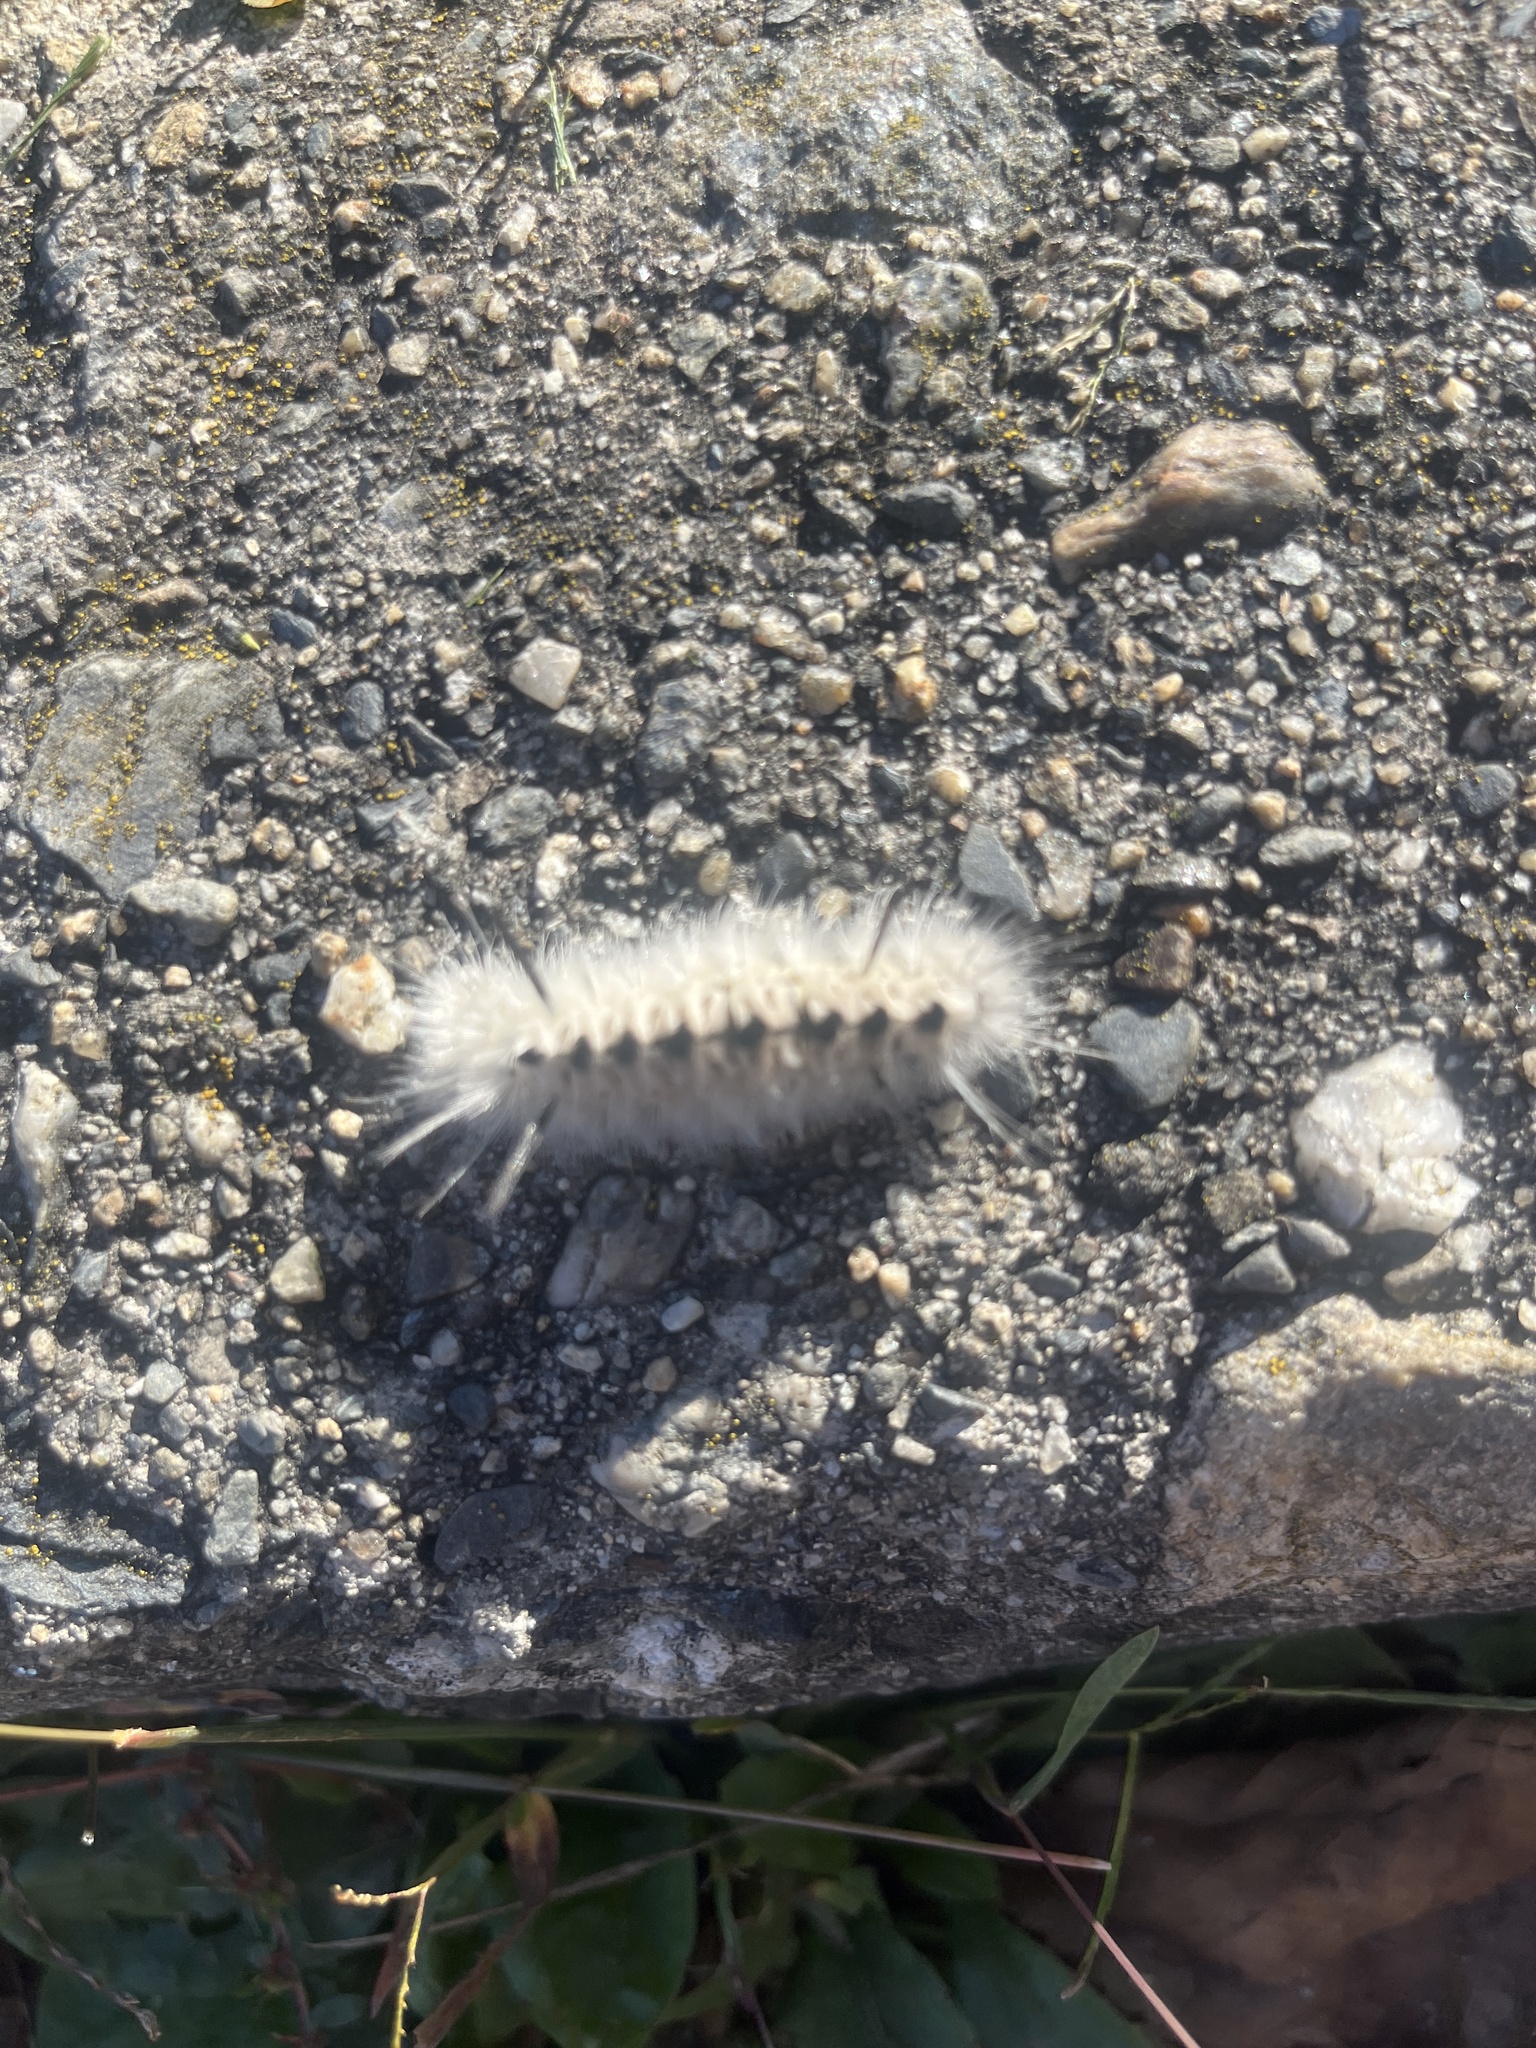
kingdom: Animalia
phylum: Arthropoda
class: Insecta
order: Lepidoptera
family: Erebidae
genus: Lophocampa
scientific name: Lophocampa caryae
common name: Hickory tussock moth
